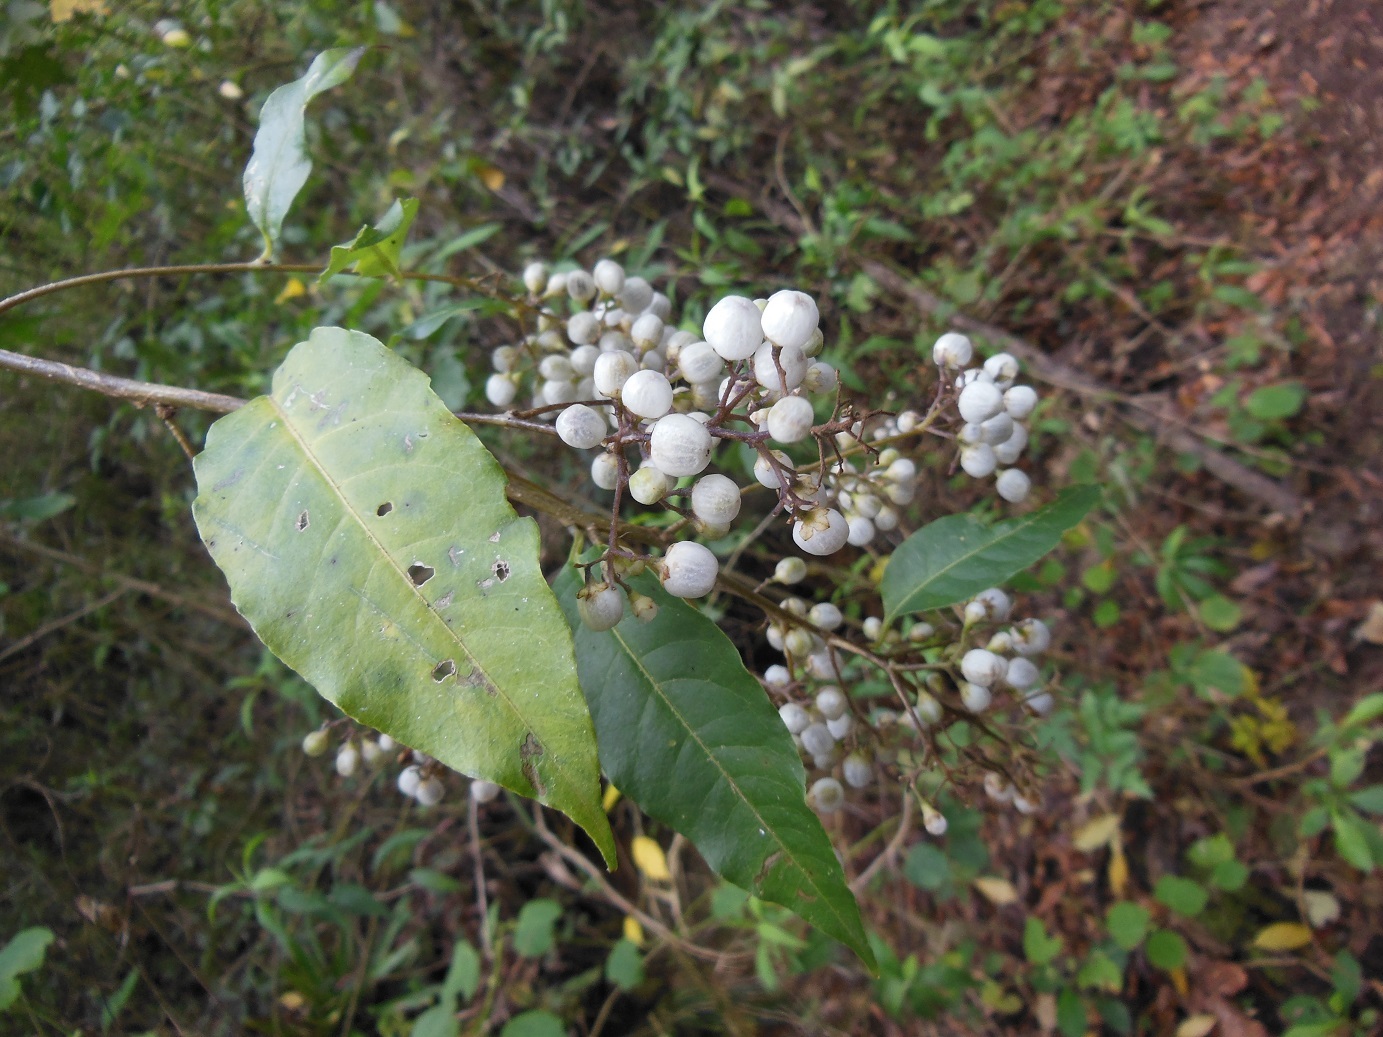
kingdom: Plantae
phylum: Tracheophyta
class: Magnoliopsida
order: Solanales
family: Solanaceae
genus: Cestrum
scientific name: Cestrum guatemalense
